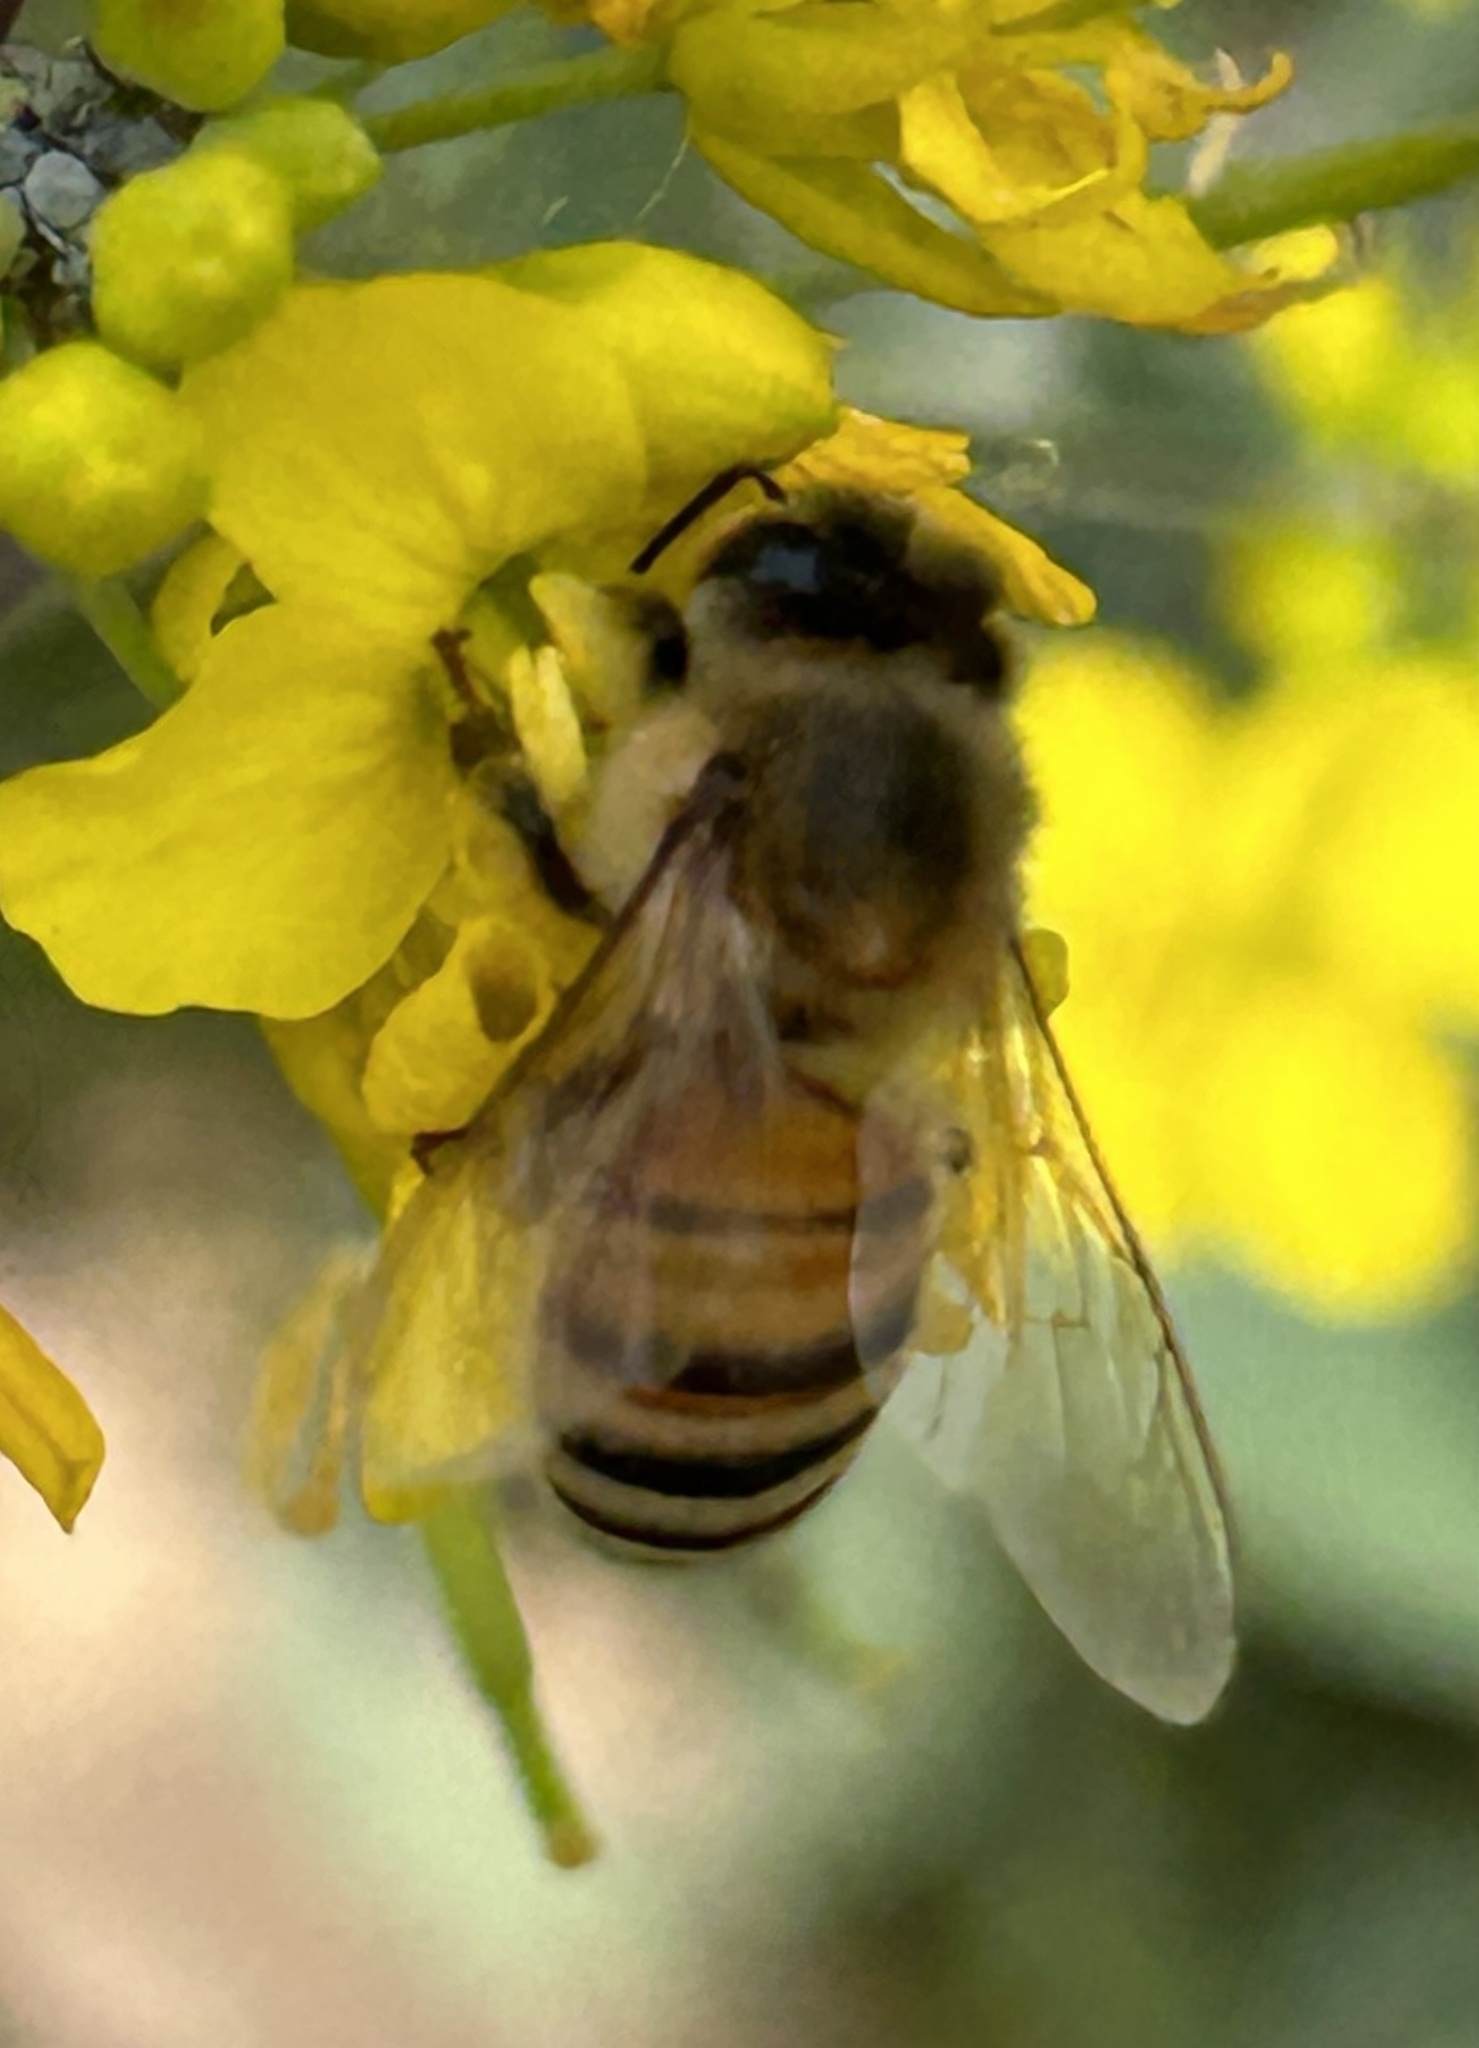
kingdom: Animalia
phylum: Arthropoda
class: Insecta
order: Hymenoptera
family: Apidae
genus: Apis
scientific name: Apis mellifera
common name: Honey bee
